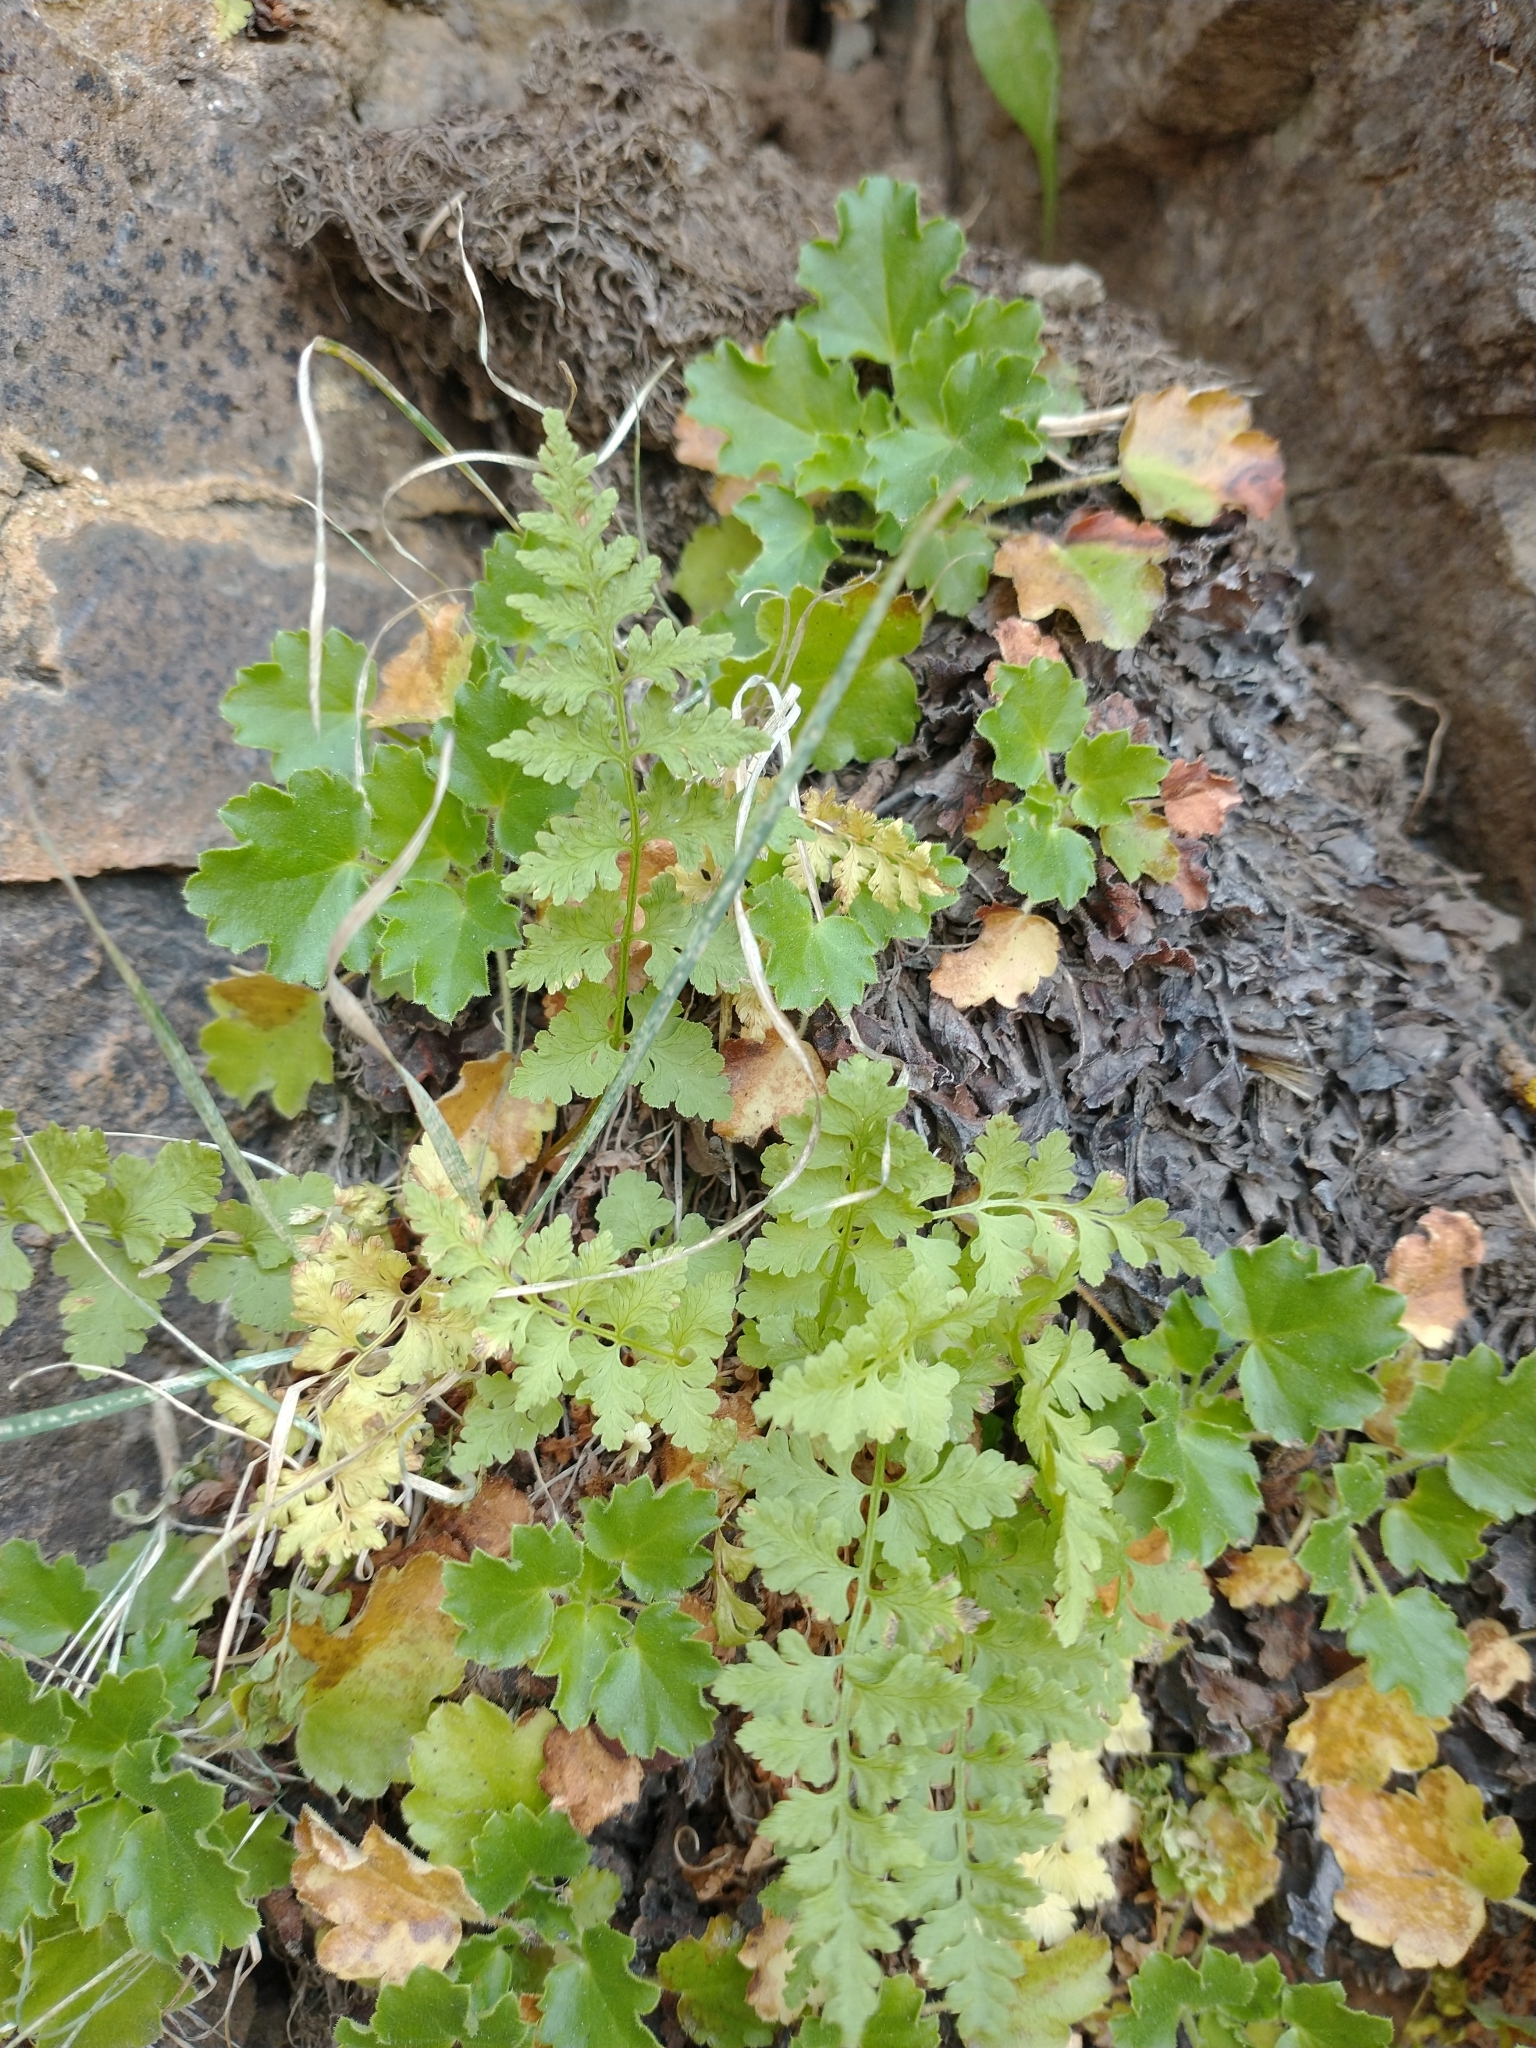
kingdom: Plantae
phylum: Tracheophyta
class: Polypodiopsida
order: Polypodiales
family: Cystopteridaceae
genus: Cystopteris
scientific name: Cystopteris fragilis
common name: Brittle bladder fern
